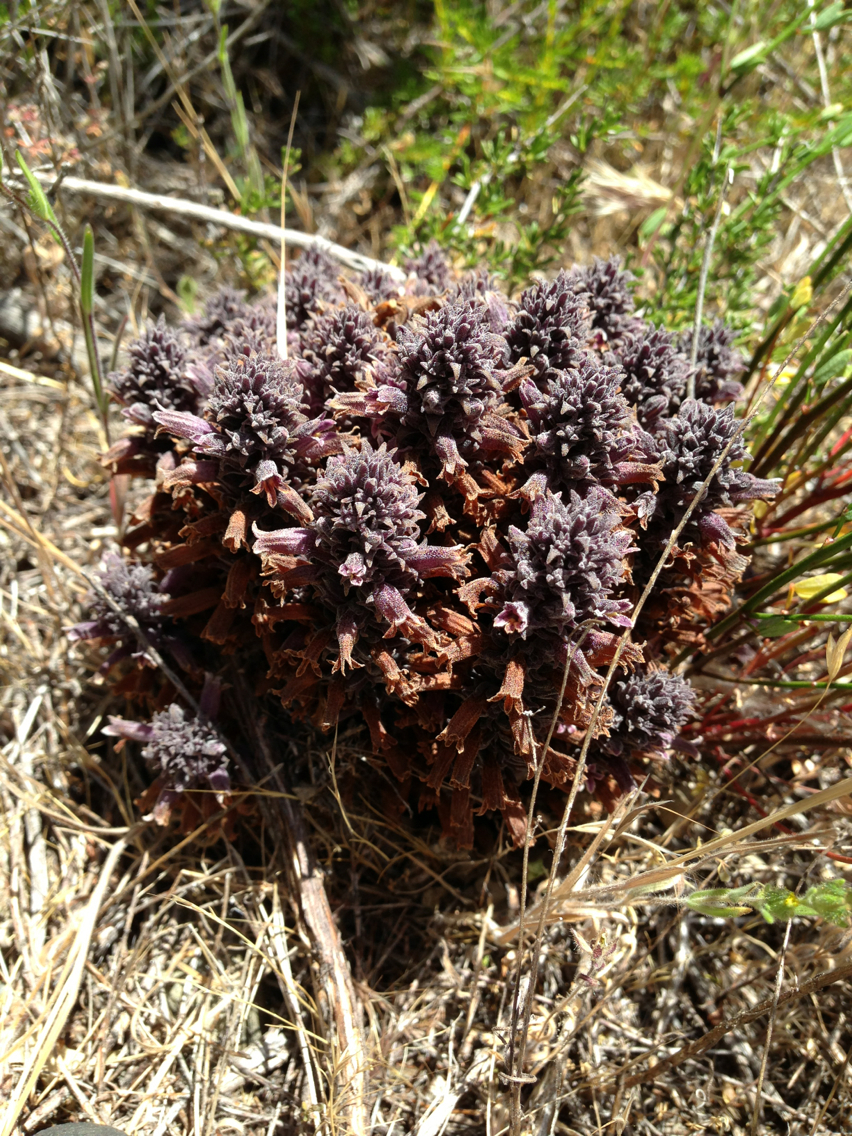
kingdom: Plantae
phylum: Tracheophyta
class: Magnoliopsida
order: Lamiales
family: Orobanchaceae
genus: Aphyllon
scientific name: Aphyllon tuberosum
